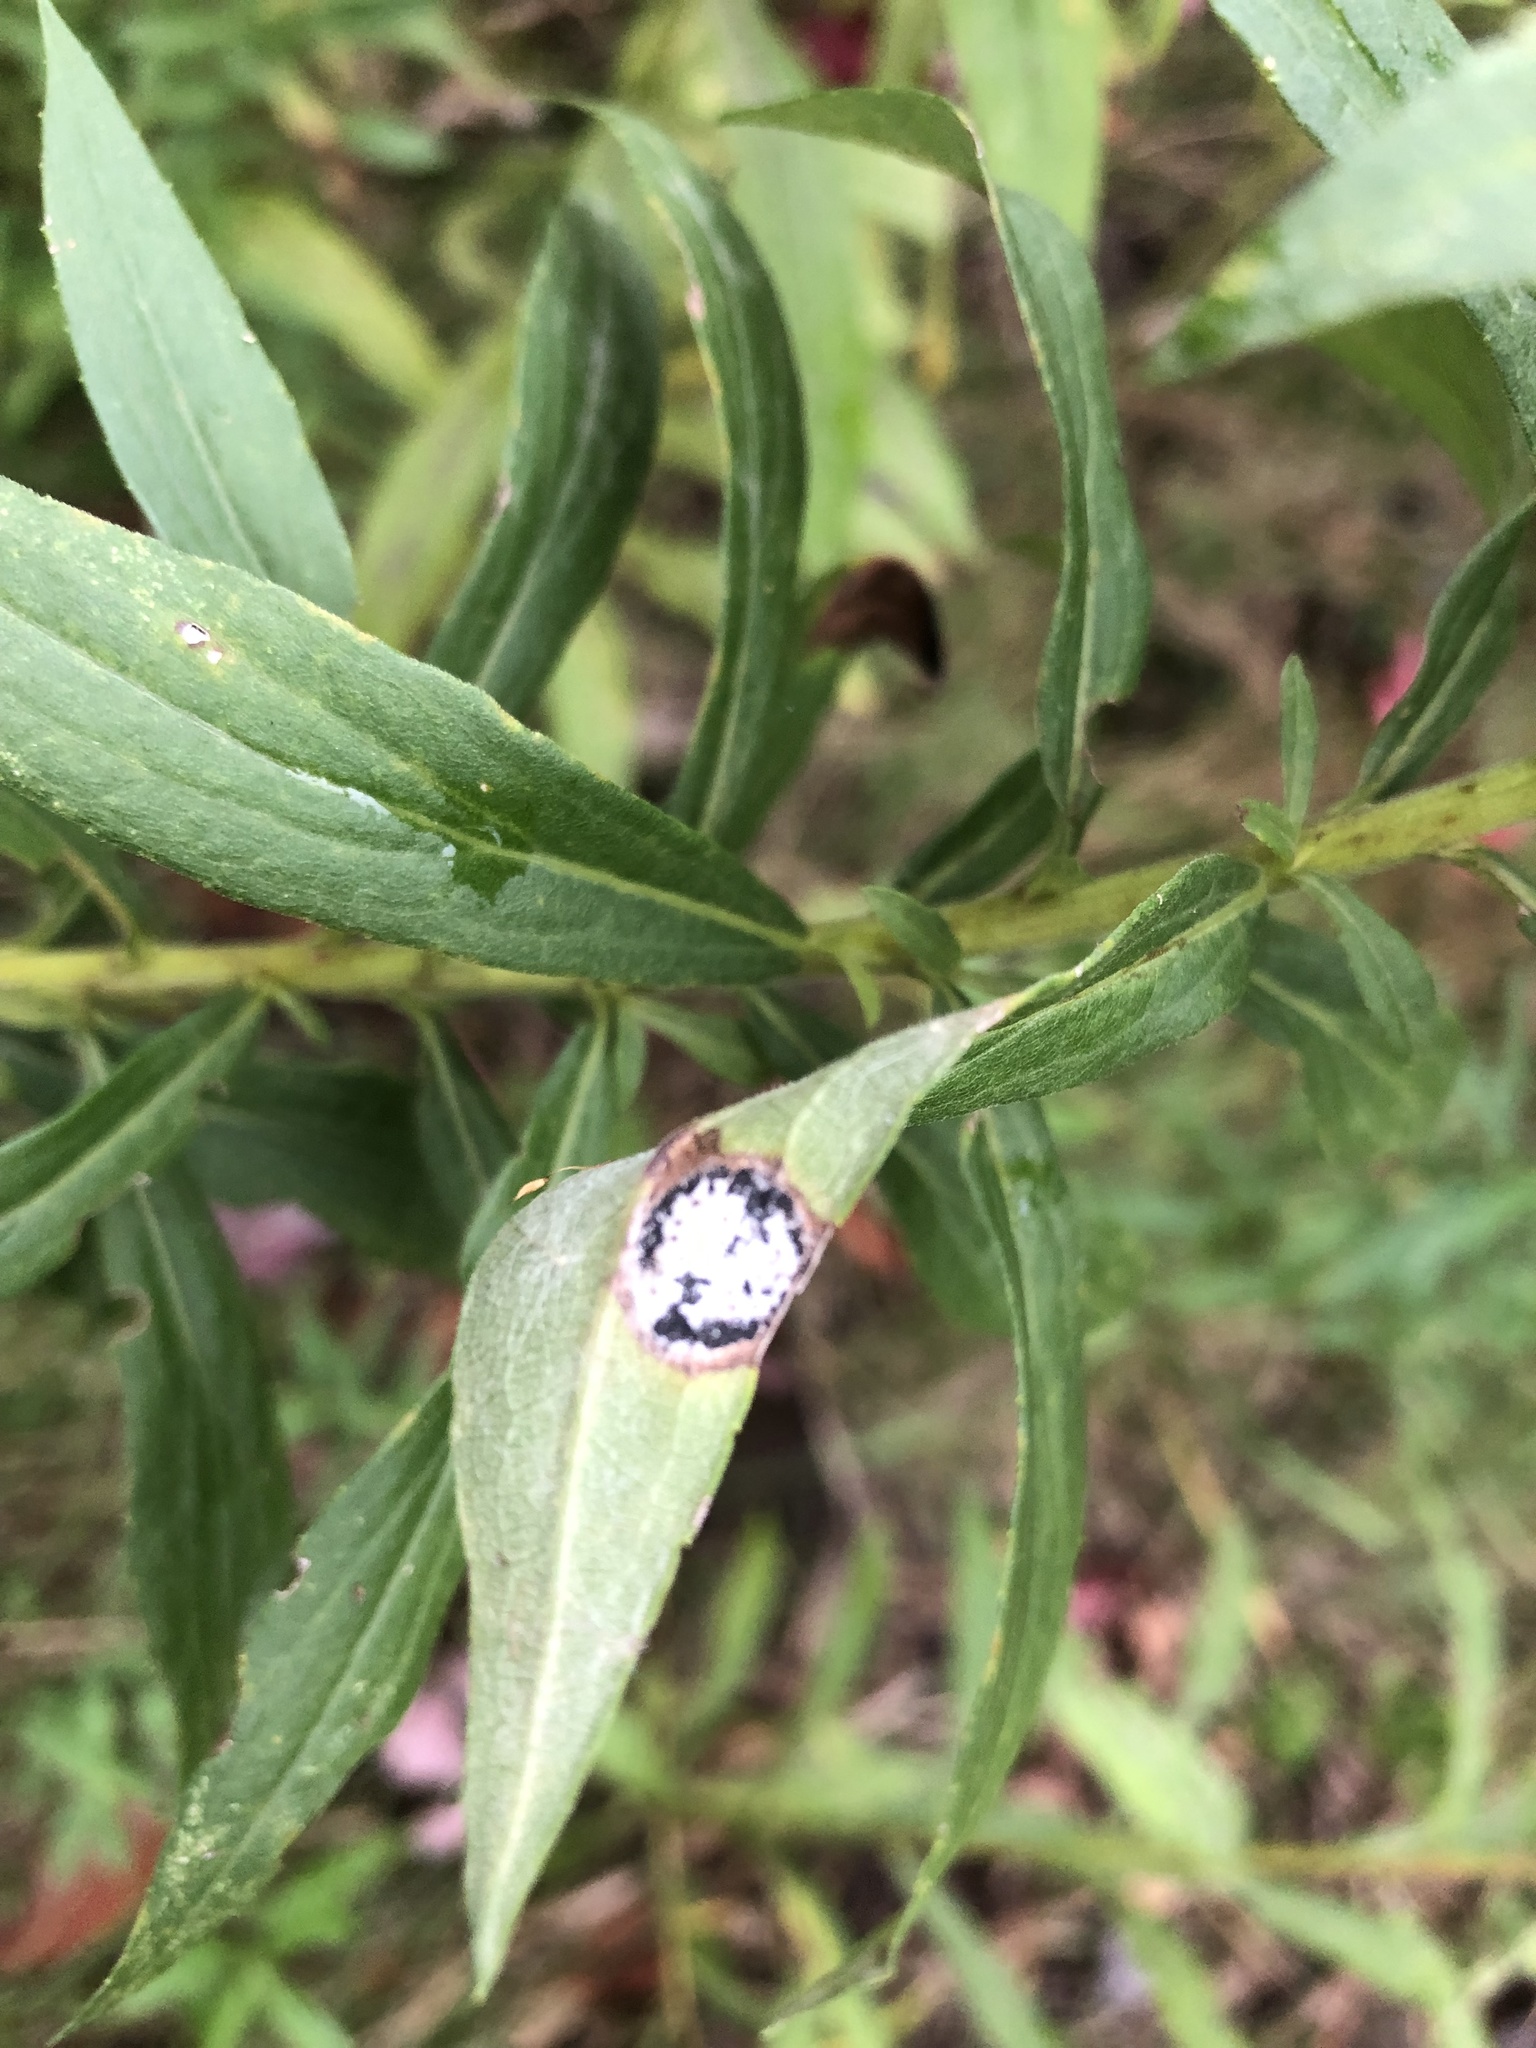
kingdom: Animalia
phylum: Arthropoda
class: Insecta
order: Diptera
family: Cecidomyiidae
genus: Asteromyia
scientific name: Asteromyia carbonifera
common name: Carbonifera goldenrod gall midge
